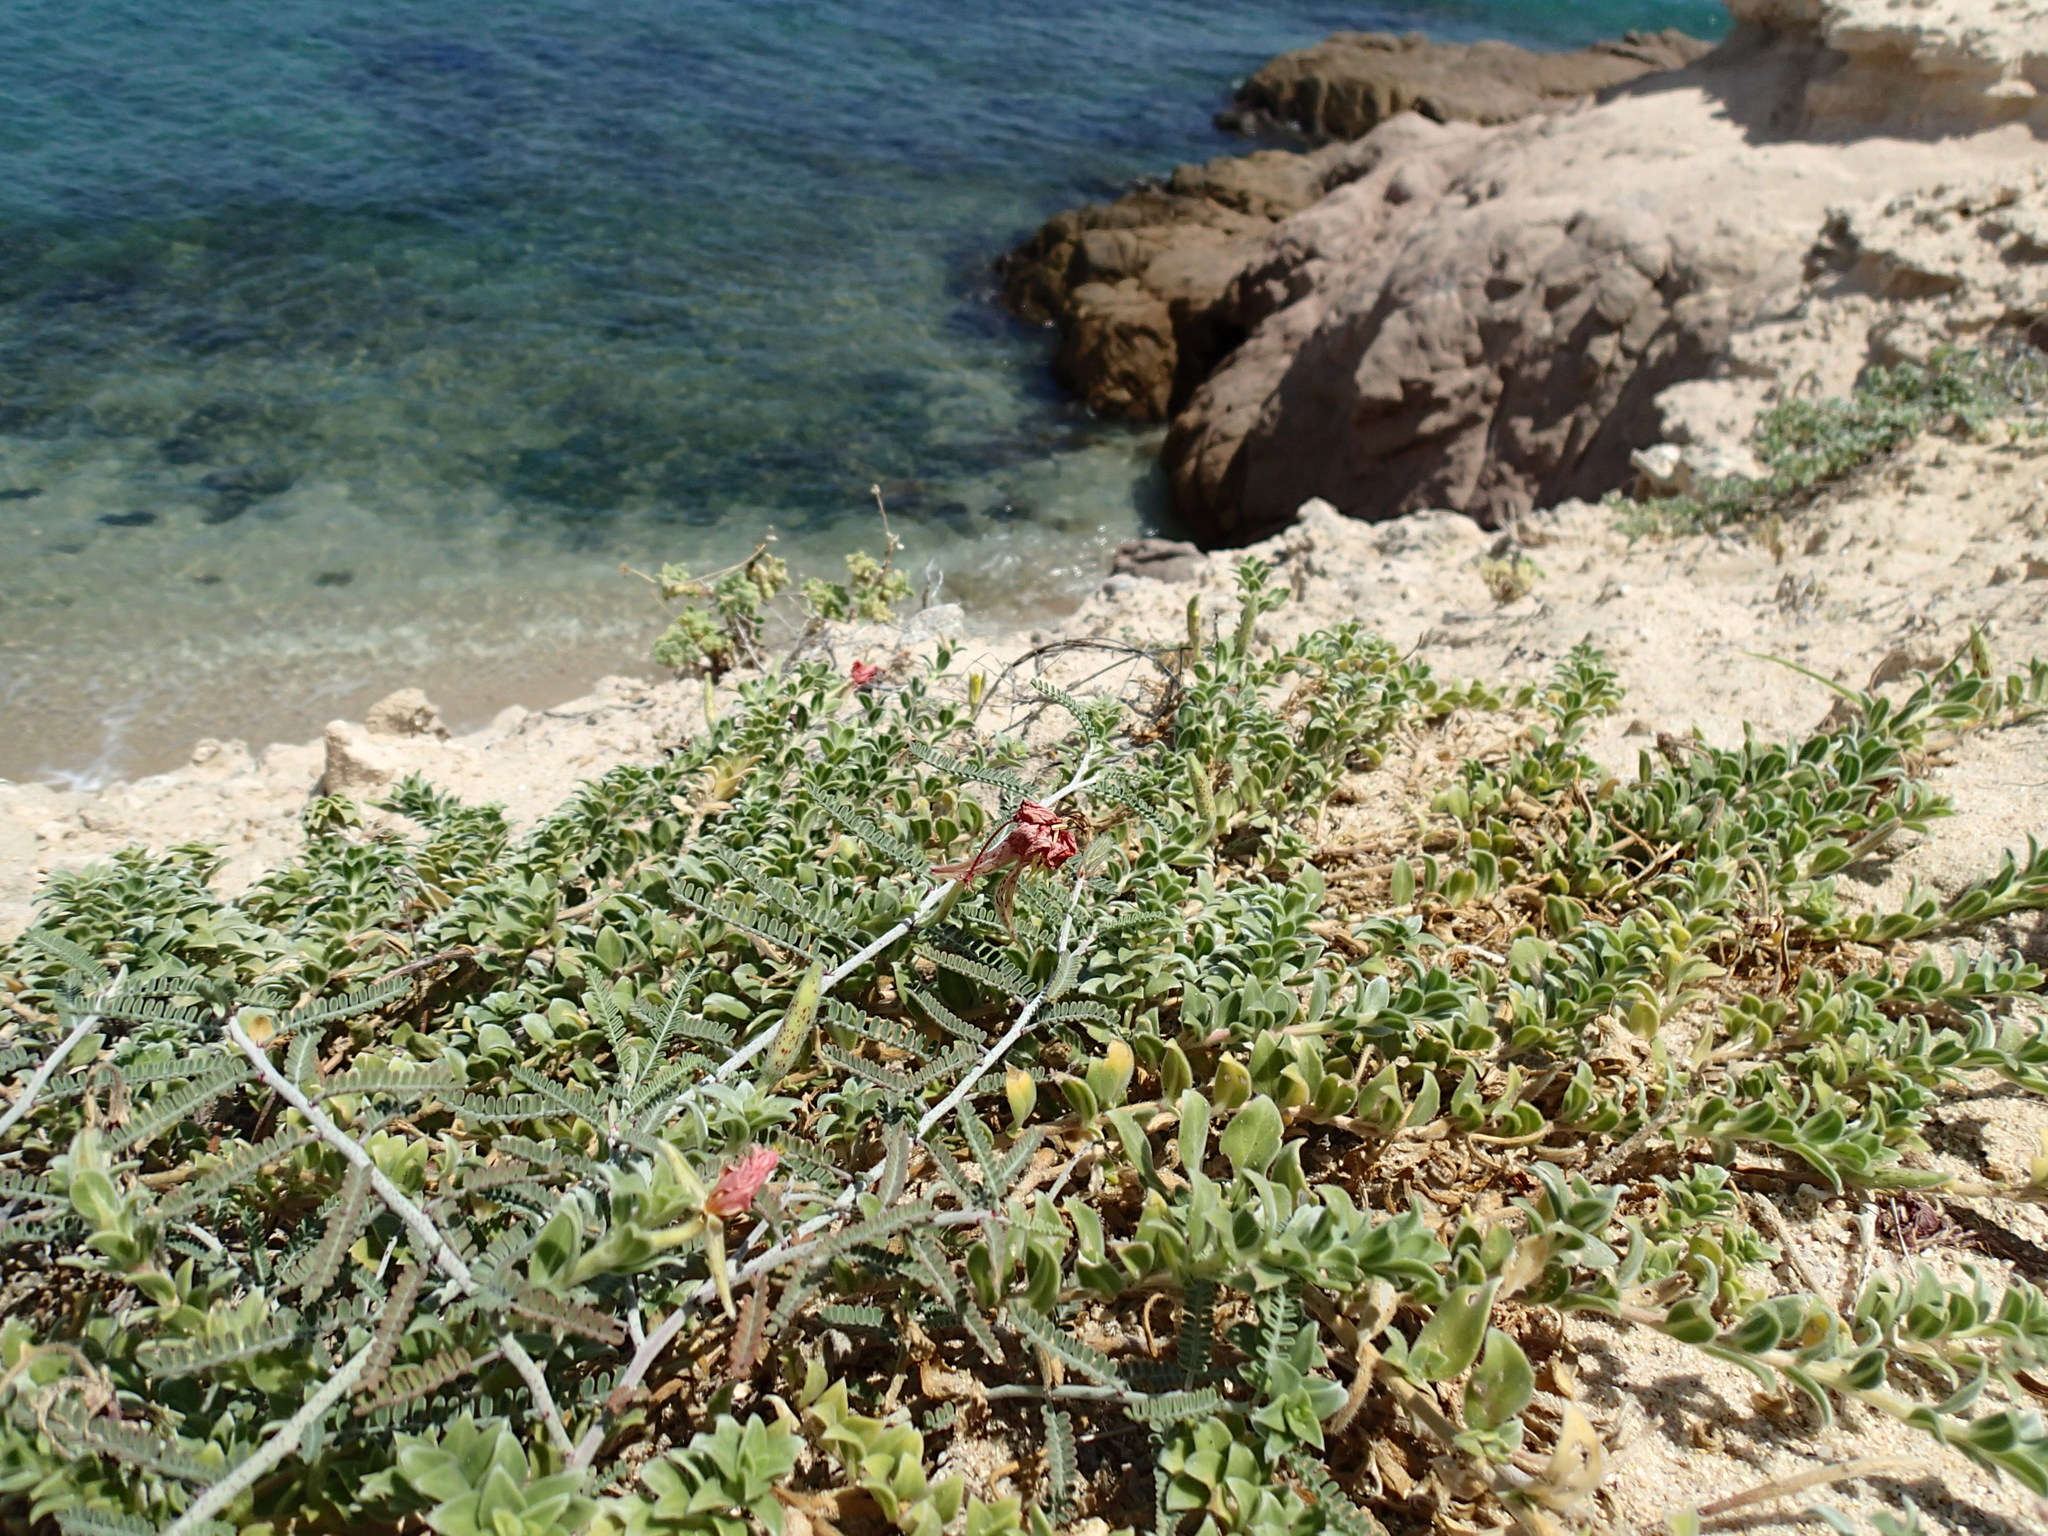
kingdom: Plantae
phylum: Tracheophyta
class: Magnoliopsida
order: Myrtales
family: Onagraceae
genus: Oenothera
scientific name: Oenothera drummondii
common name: Beach evening-primrose
